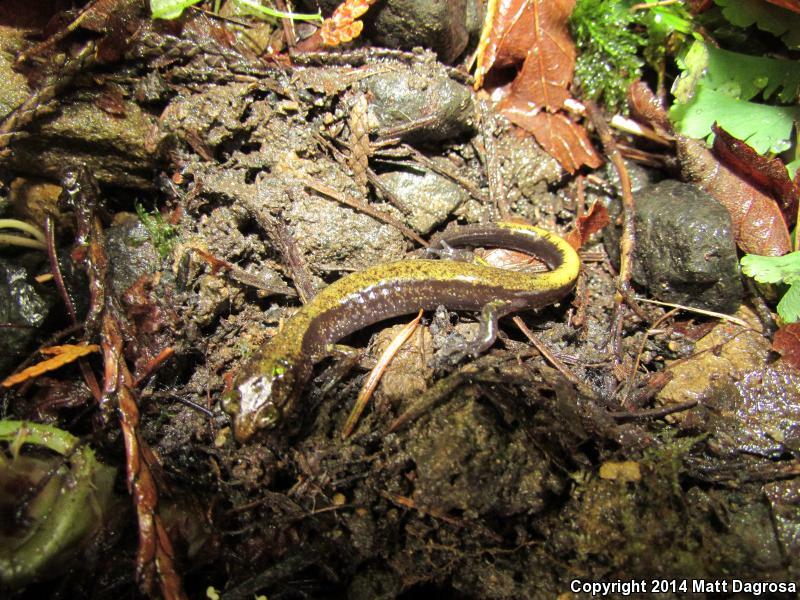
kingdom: Animalia
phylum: Chordata
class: Amphibia
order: Caudata
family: Plethodontidae
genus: Plethodon
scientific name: Plethodon dunni
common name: Dunn's salamander
